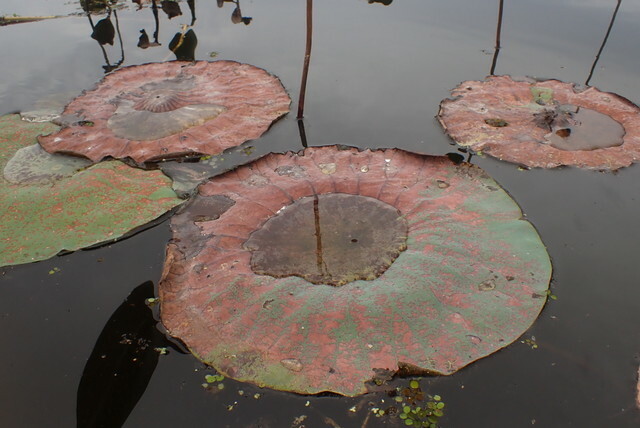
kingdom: Plantae
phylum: Tracheophyta
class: Magnoliopsida
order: Proteales
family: Nelumbonaceae
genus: Nelumbo
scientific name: Nelumbo lutea
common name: American lotus
